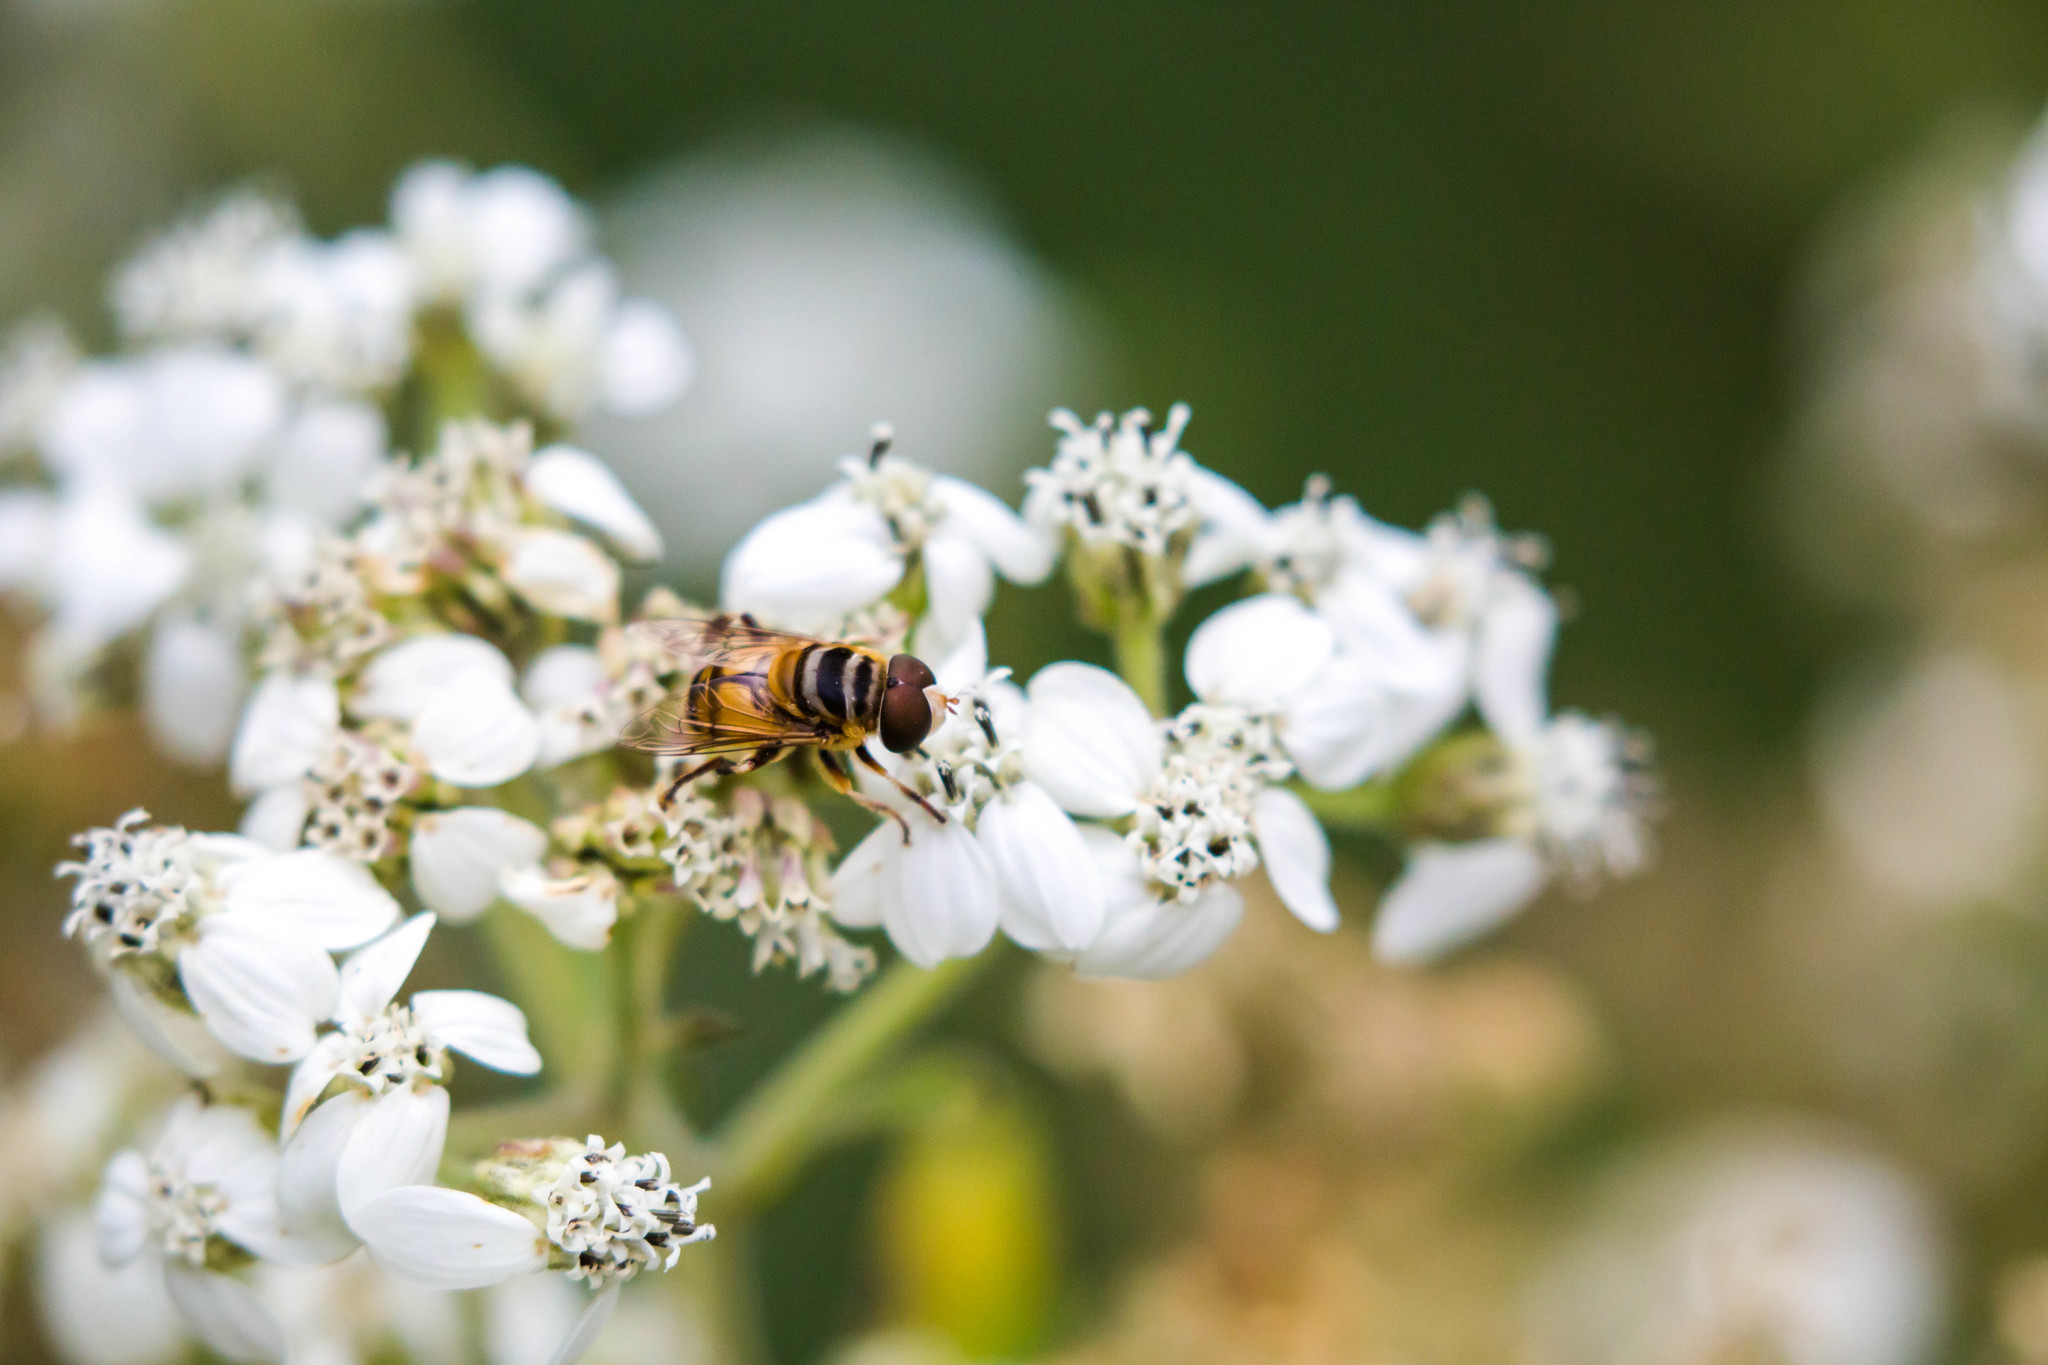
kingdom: Animalia
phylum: Arthropoda
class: Insecta
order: Diptera
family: Syrphidae
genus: Palpada
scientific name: Palpada vinetorum
